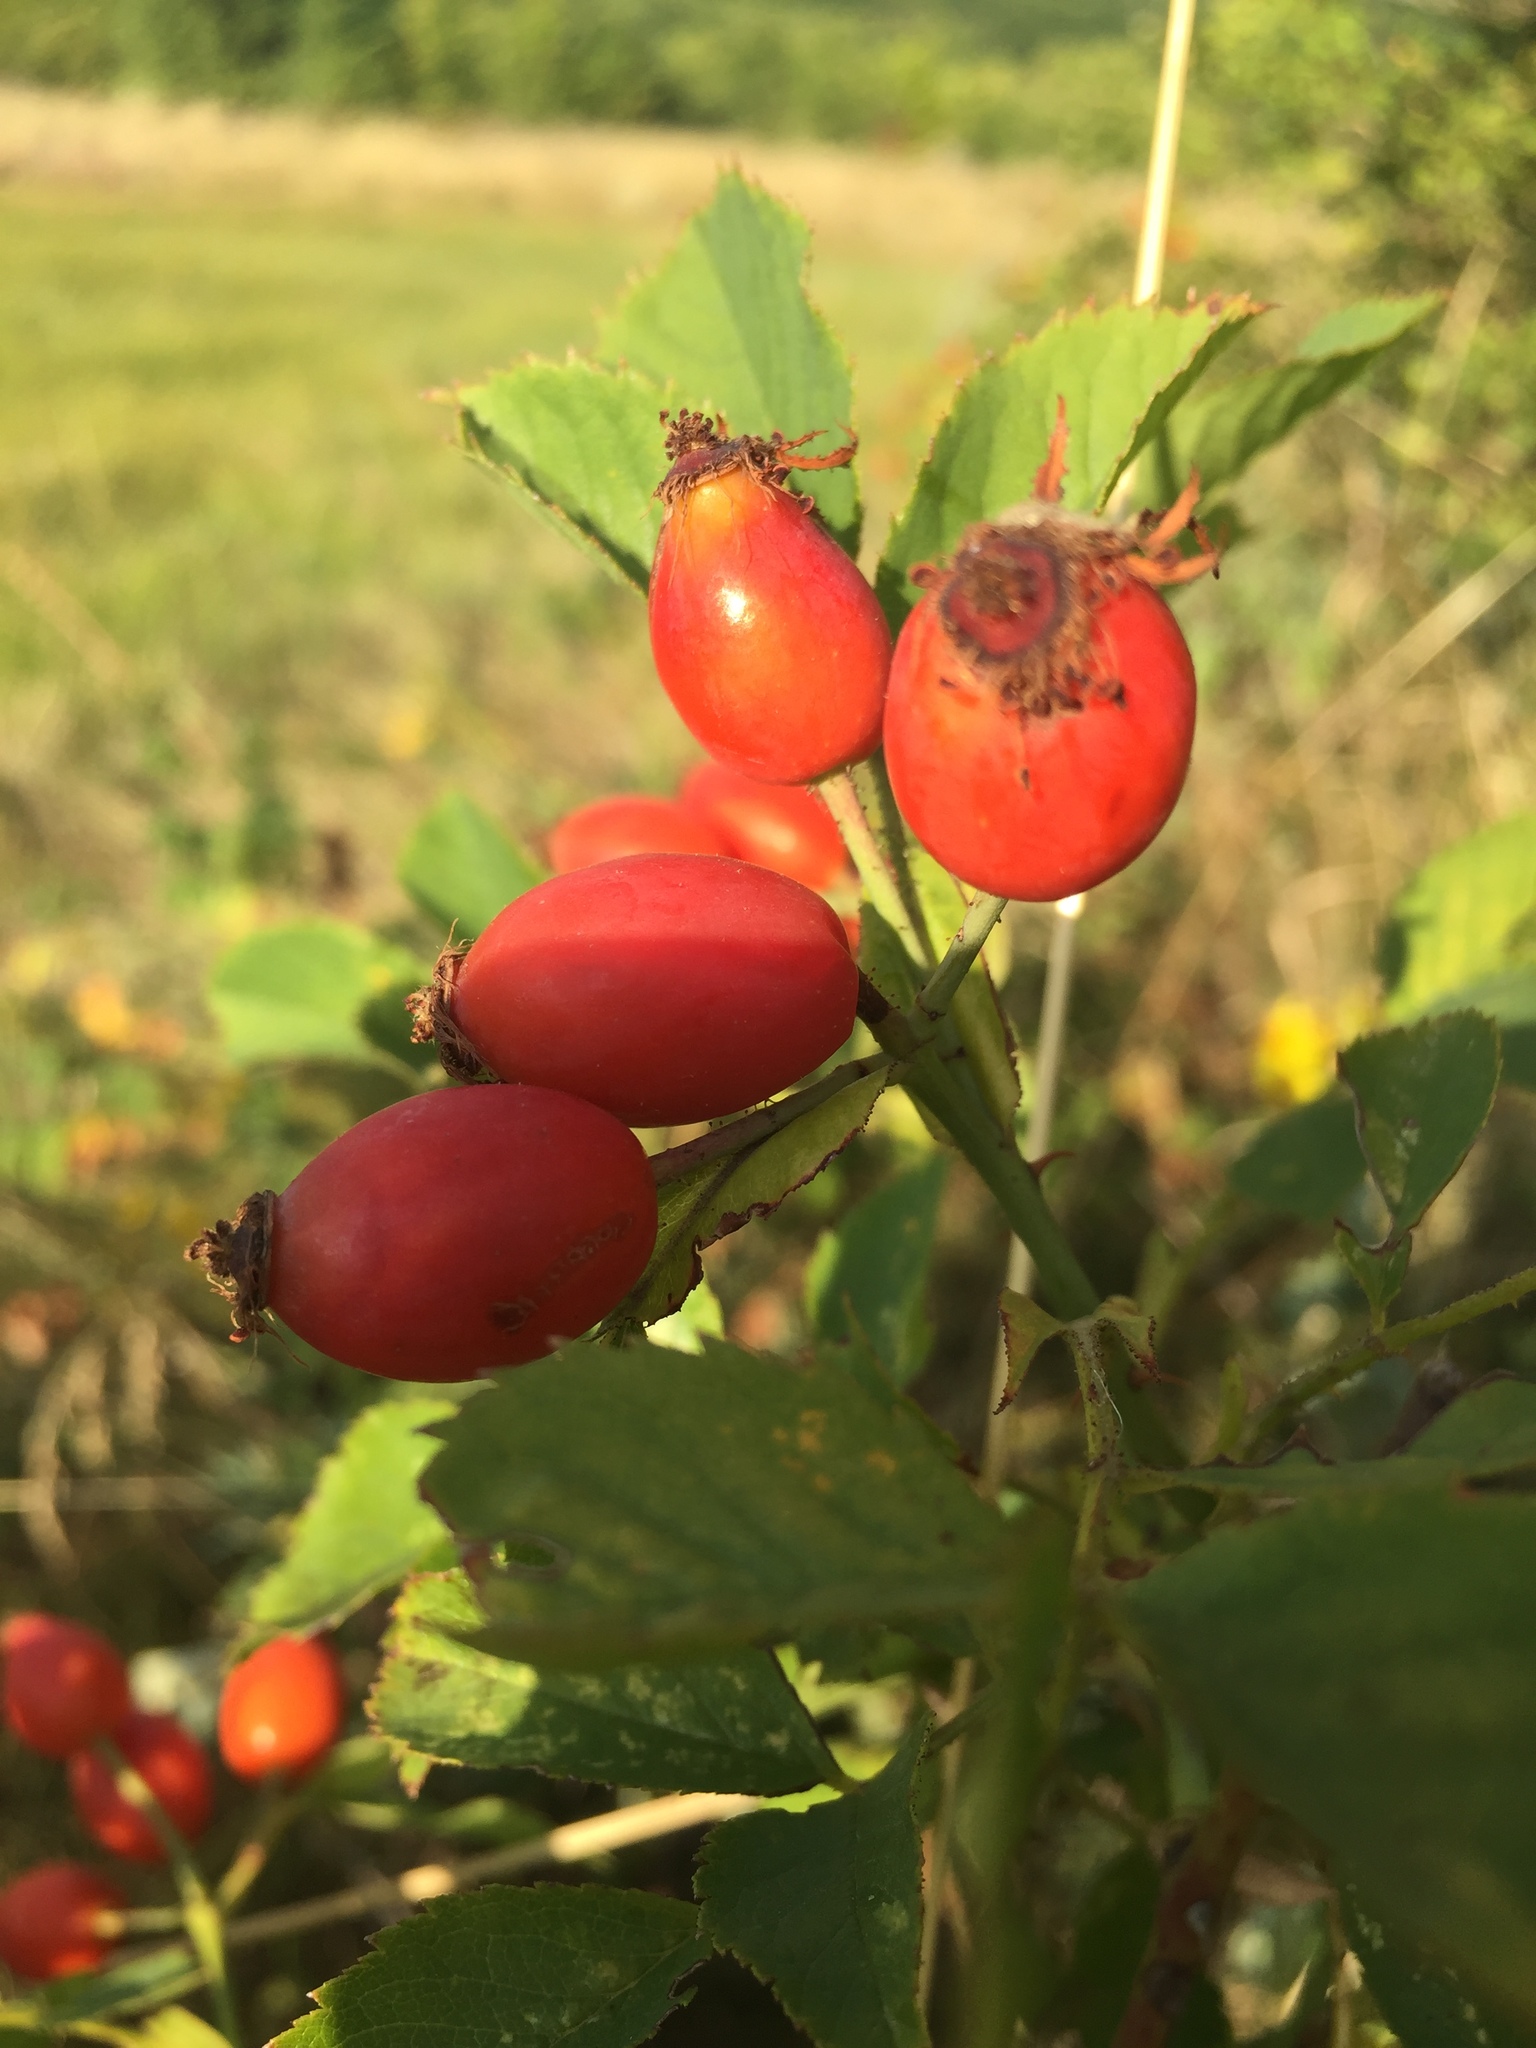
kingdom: Plantae
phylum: Tracheophyta
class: Magnoliopsida
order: Rosales
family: Rosaceae
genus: Rosa
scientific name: Rosa canina
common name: Dog rose
